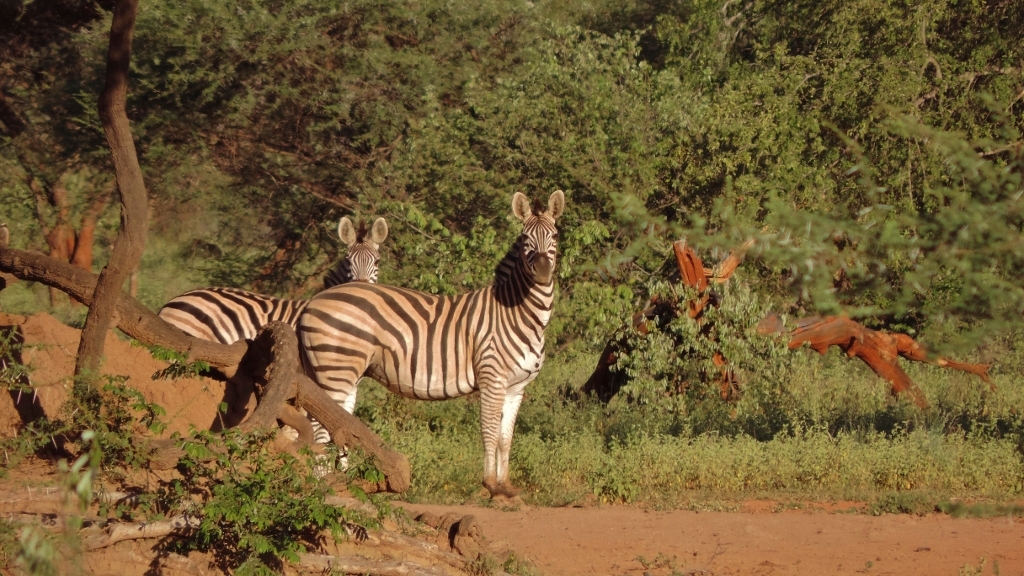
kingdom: Animalia
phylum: Chordata
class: Mammalia
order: Perissodactyla
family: Equidae
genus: Equus
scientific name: Equus quagga
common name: Plains zebra
